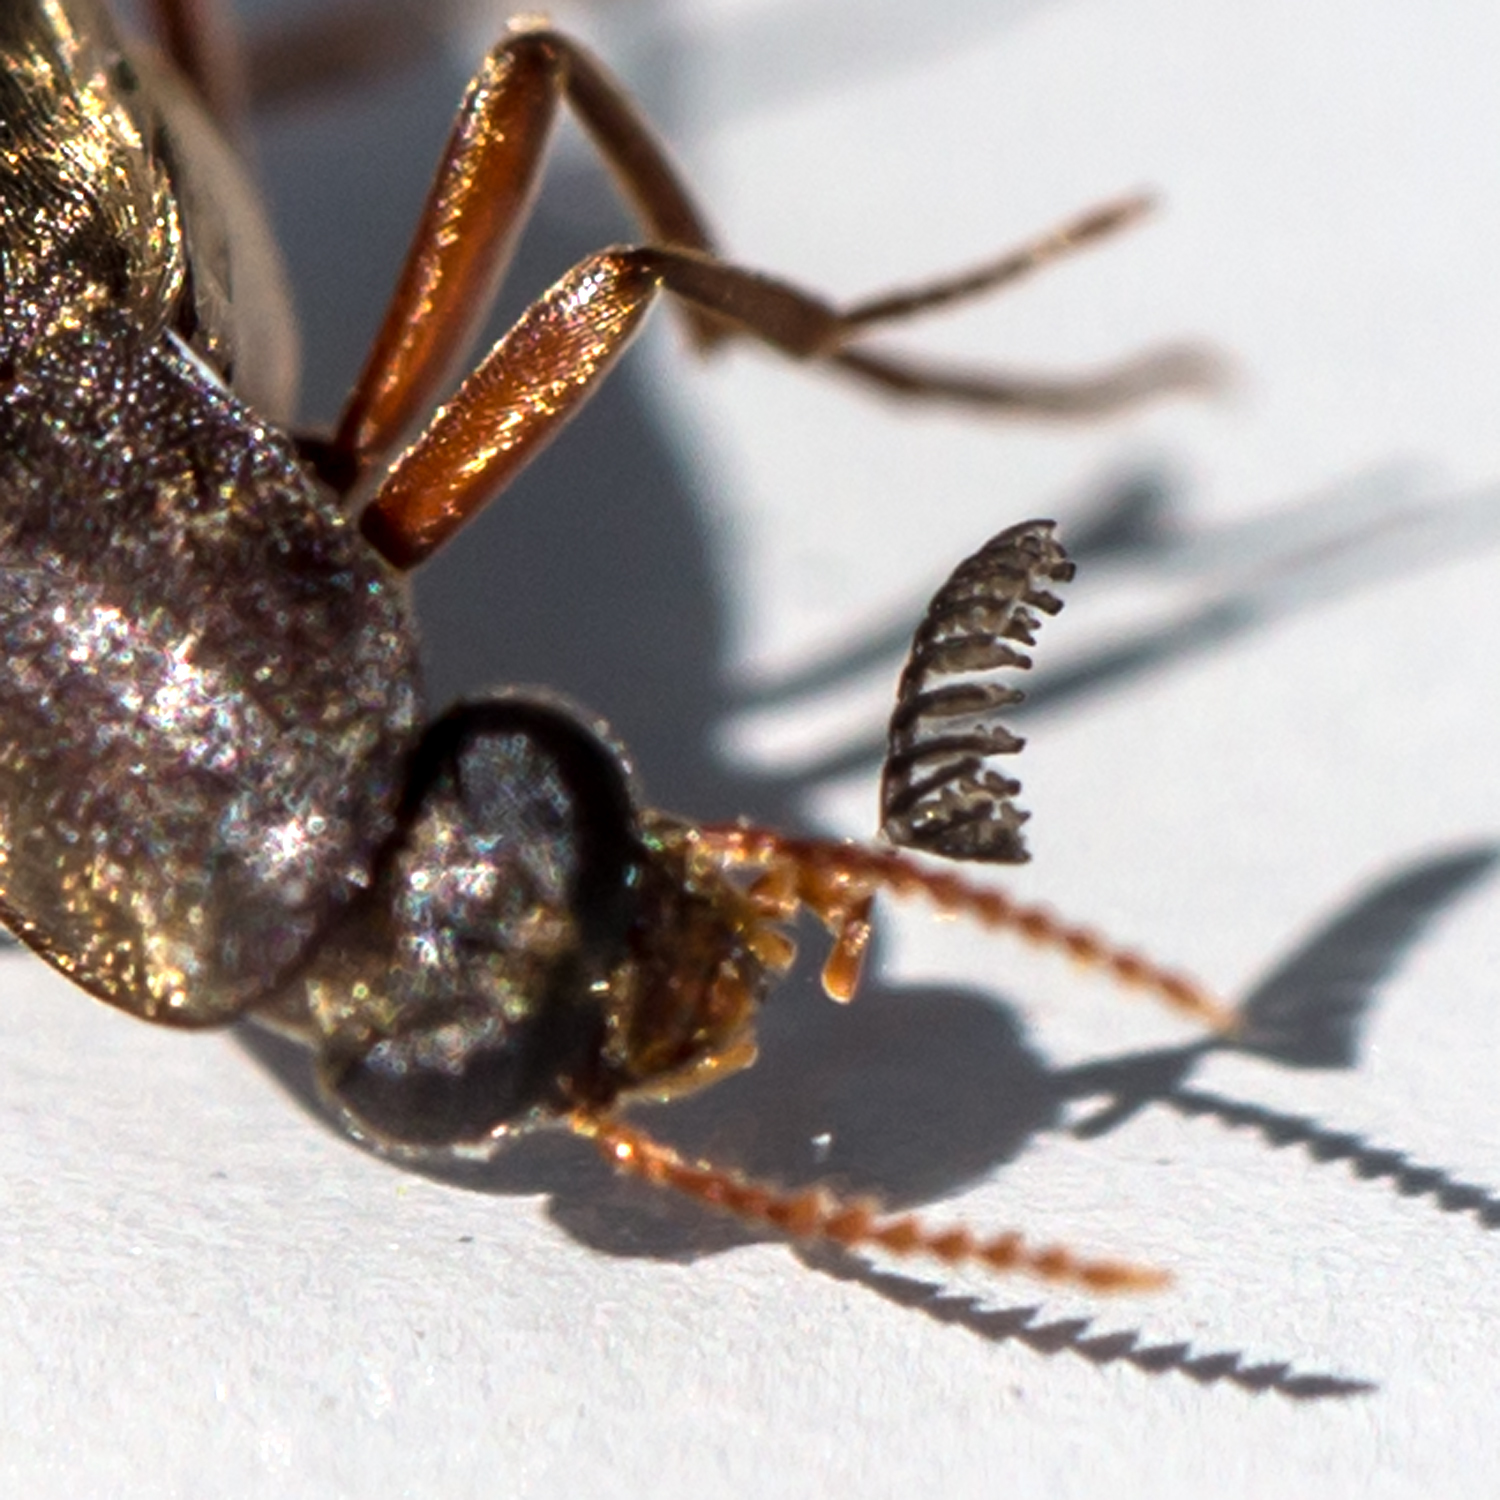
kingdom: Animalia
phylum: Arthropoda
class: Insecta
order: Coleoptera
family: Lymexylidae
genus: Melittomma
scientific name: Melittomma sericeum
